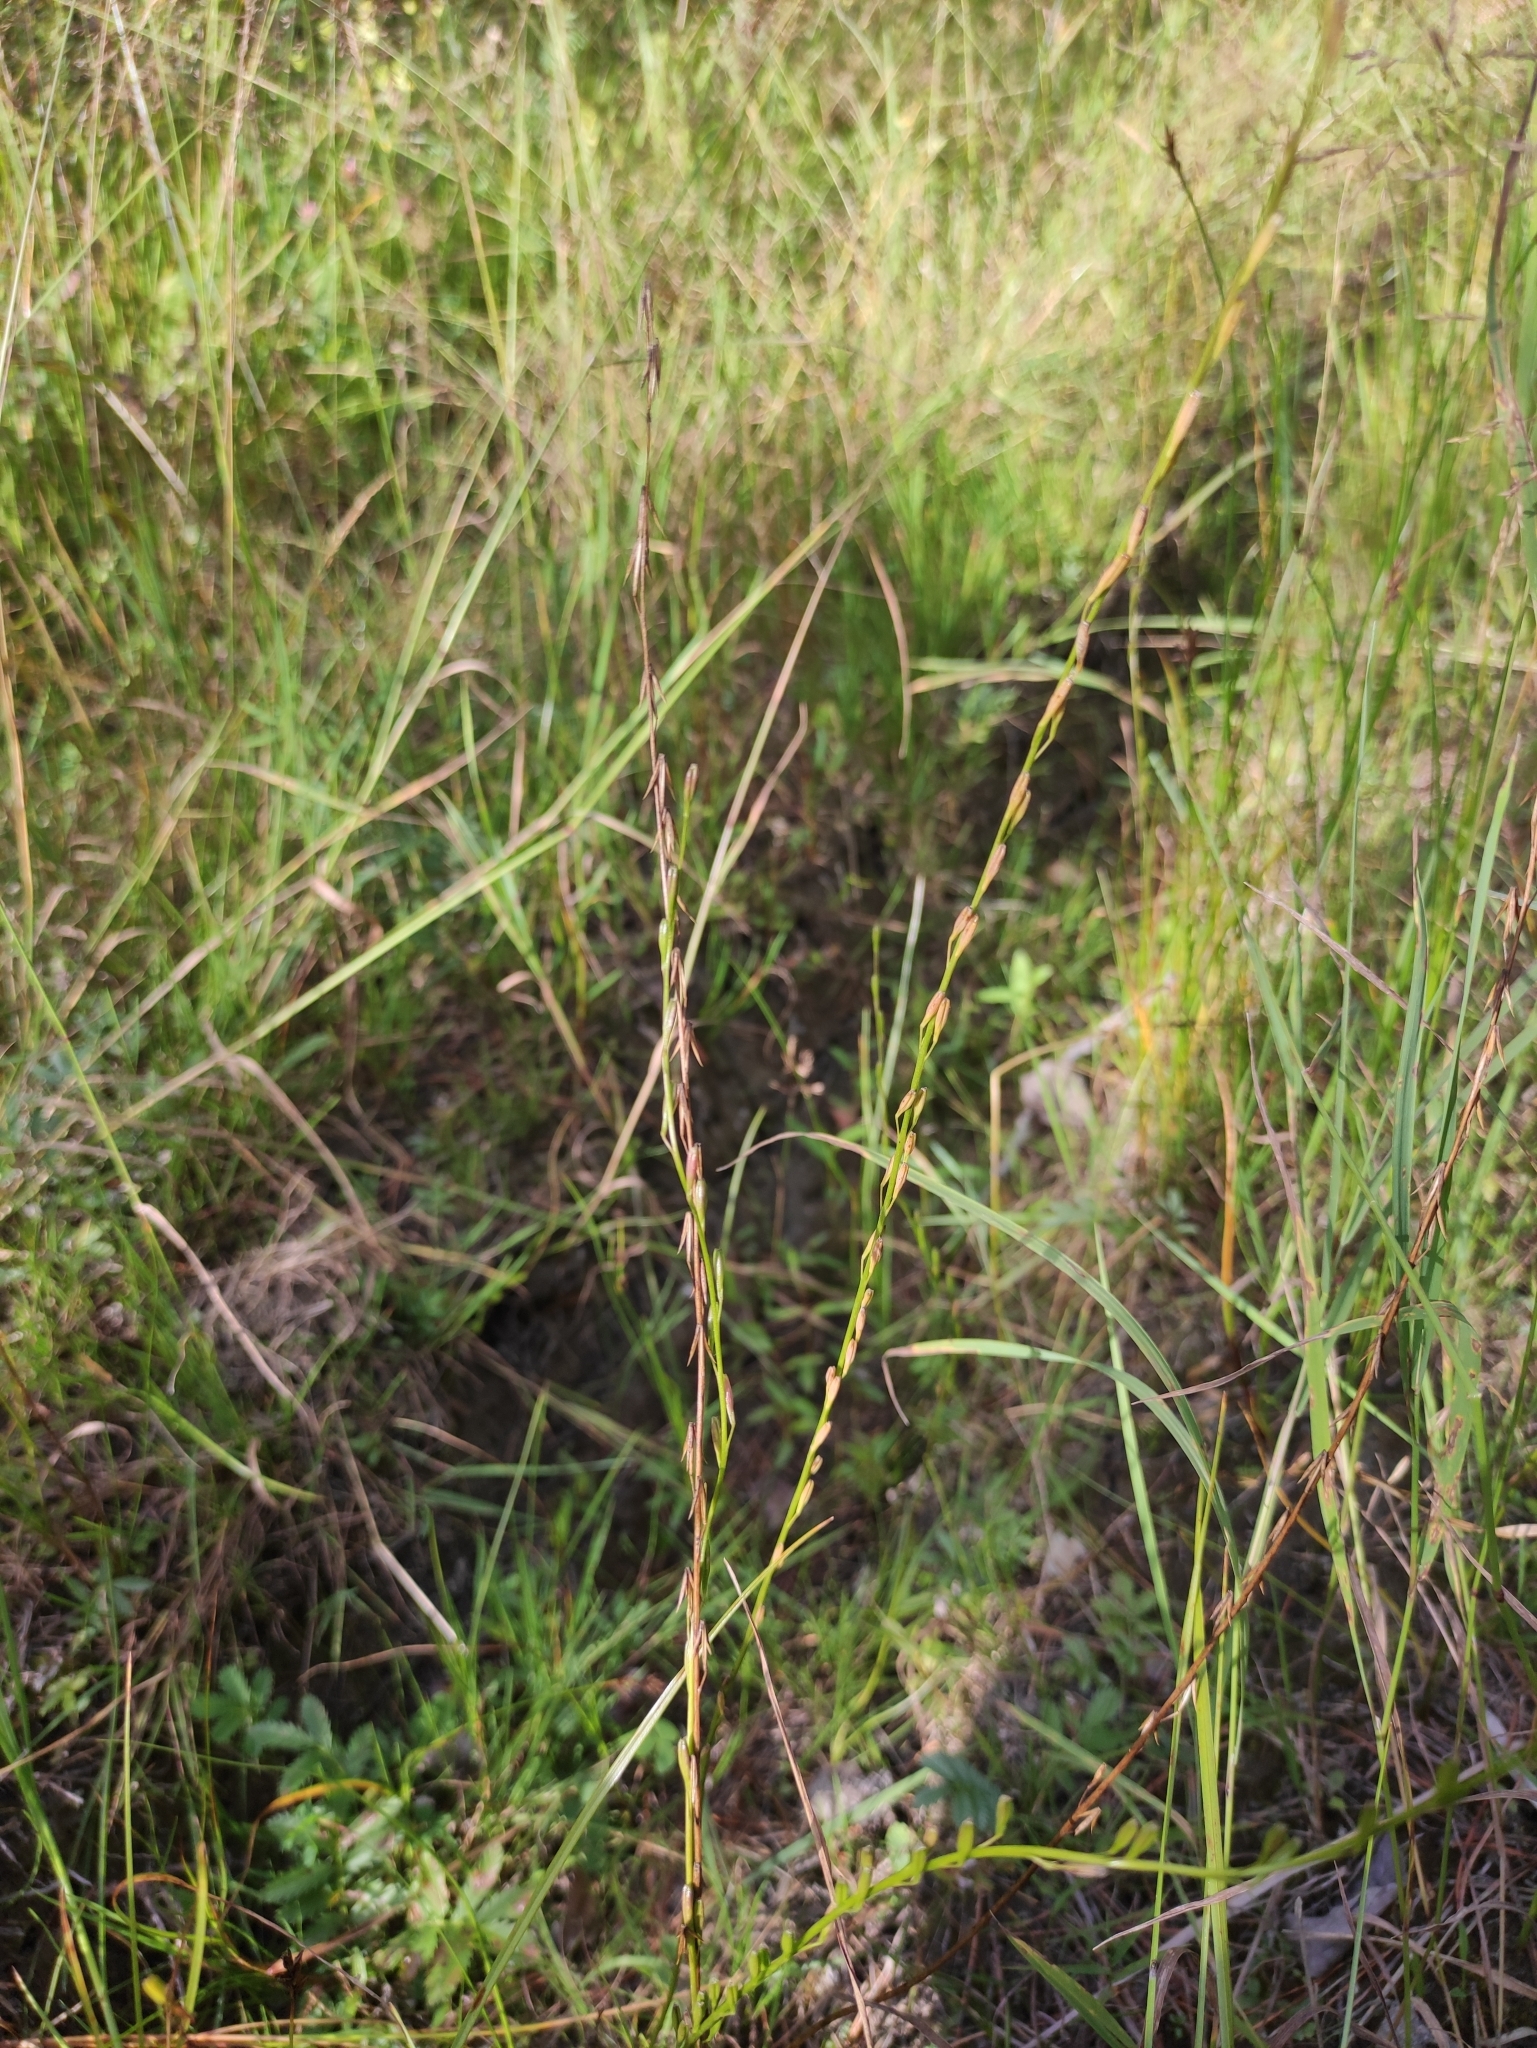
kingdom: Plantae
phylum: Tracheophyta
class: Liliopsida
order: Alismatales
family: Juncaginaceae
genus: Triglochin
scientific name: Triglochin palustris
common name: Marsh arrowgrass
